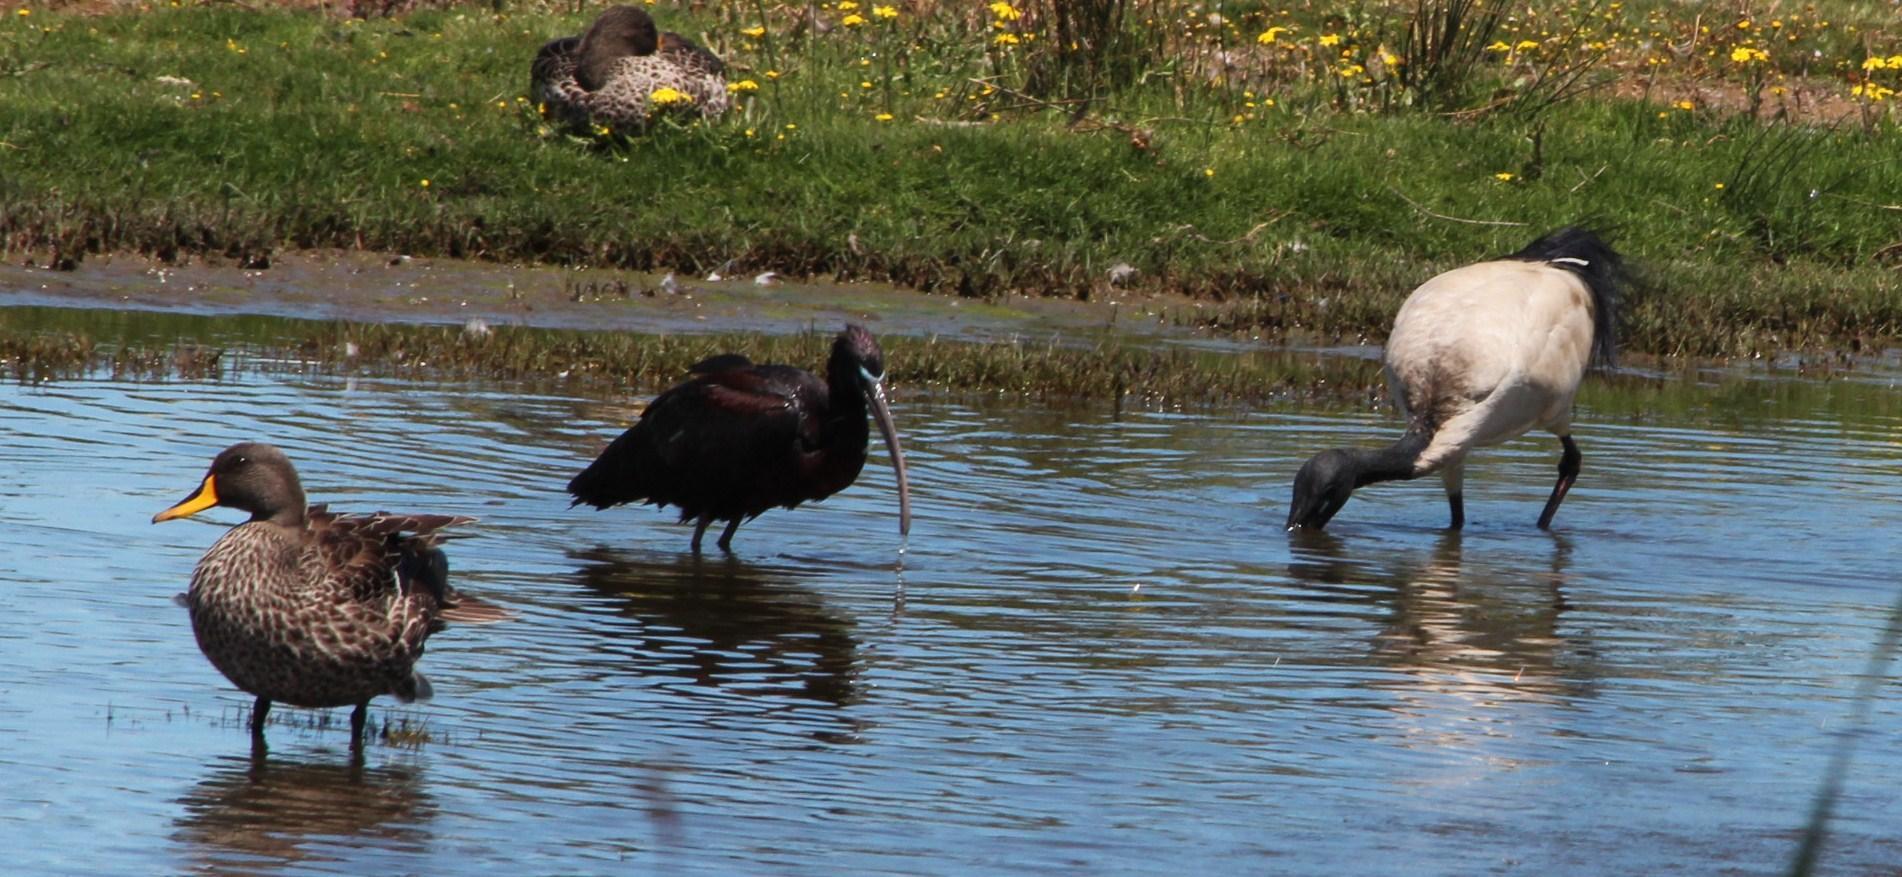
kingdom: Animalia
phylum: Chordata
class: Aves
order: Pelecaniformes
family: Threskiornithidae
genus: Threskiornis
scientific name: Threskiornis aethiopicus
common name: Sacred ibis
